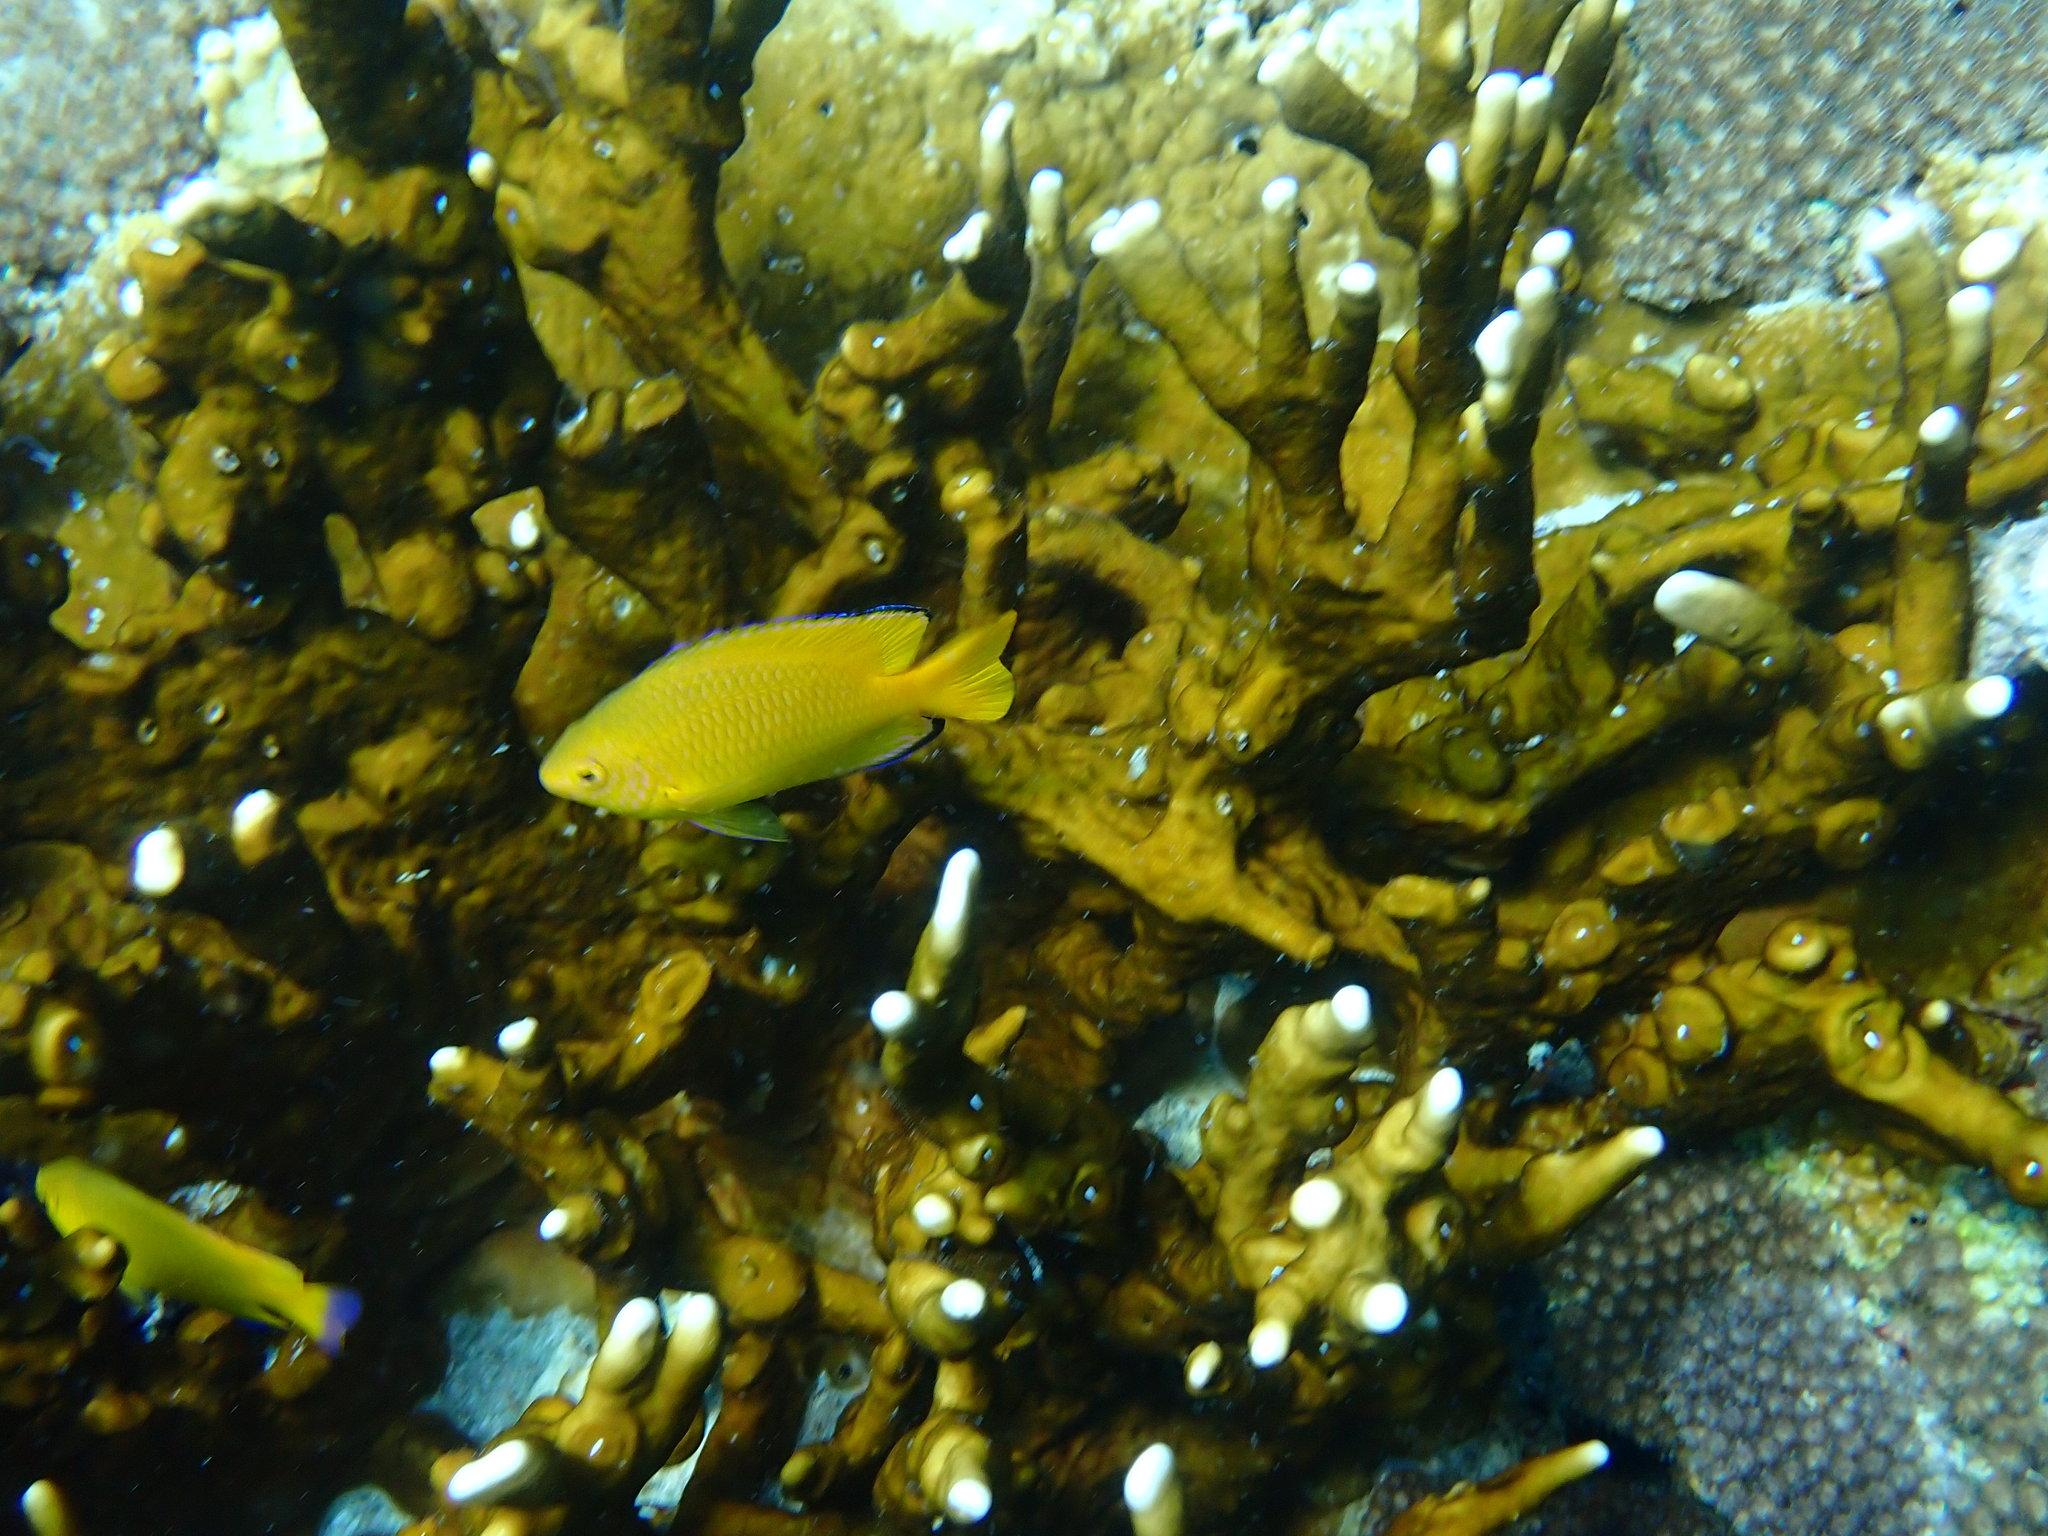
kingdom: Animalia
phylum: Chordata
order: Perciformes
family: Pomacentridae
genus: Pomacentrus
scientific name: Pomacentrus moluccensis
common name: Lemon damsel
